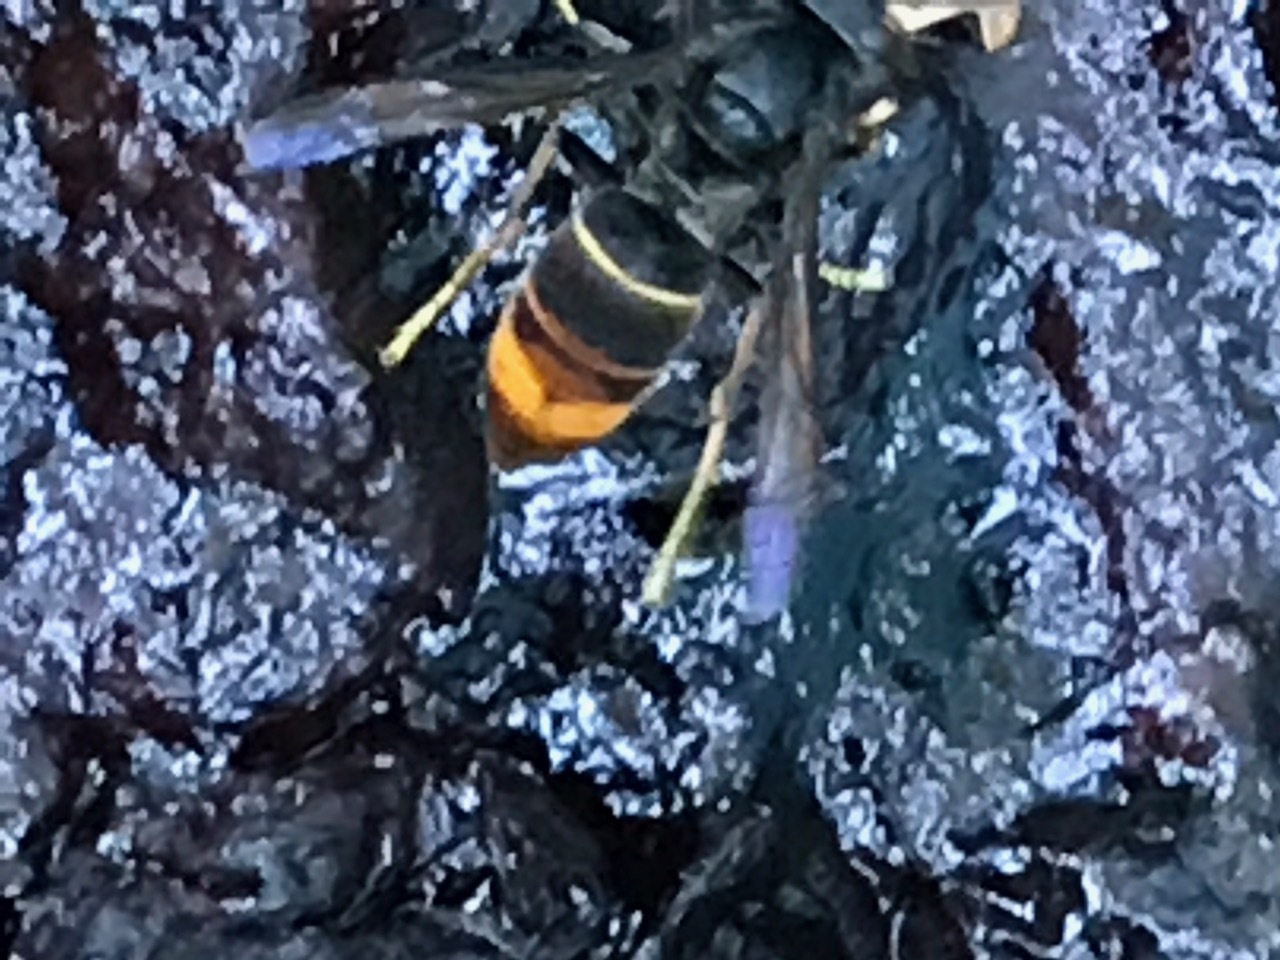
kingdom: Animalia
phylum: Arthropoda
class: Insecta
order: Hymenoptera
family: Vespidae
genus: Vespa
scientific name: Vespa velutina
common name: Asian hornet
